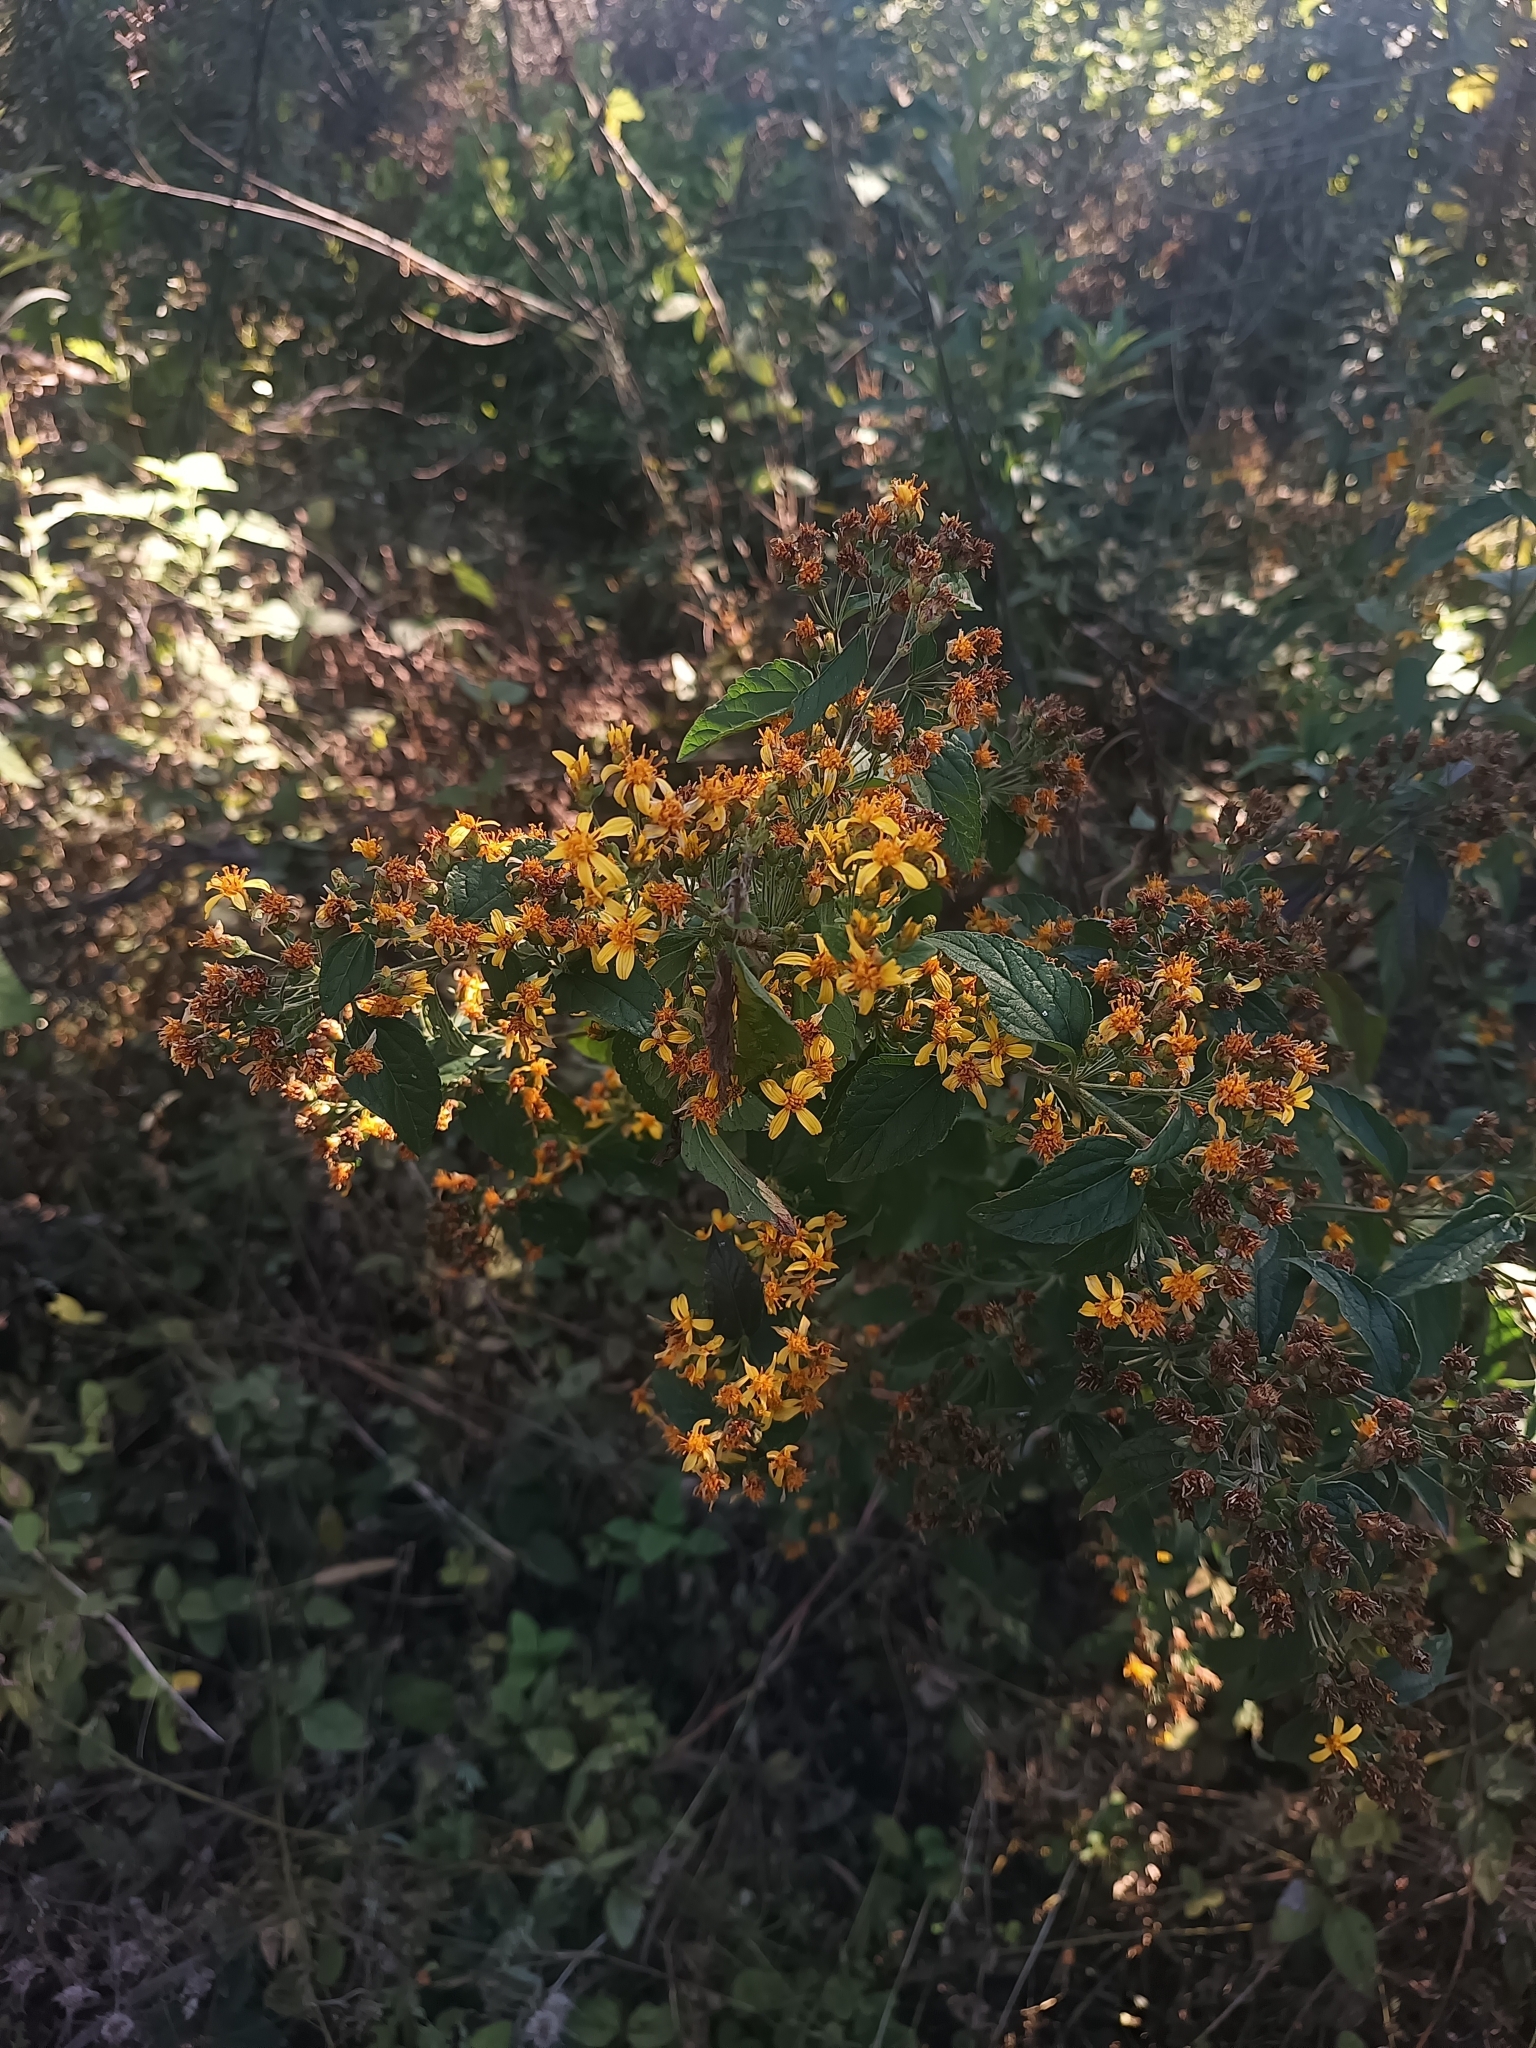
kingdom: Plantae
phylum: Tracheophyta
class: Magnoliopsida
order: Asterales
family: Asteraceae
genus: Calea
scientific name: Calea urticifolia
